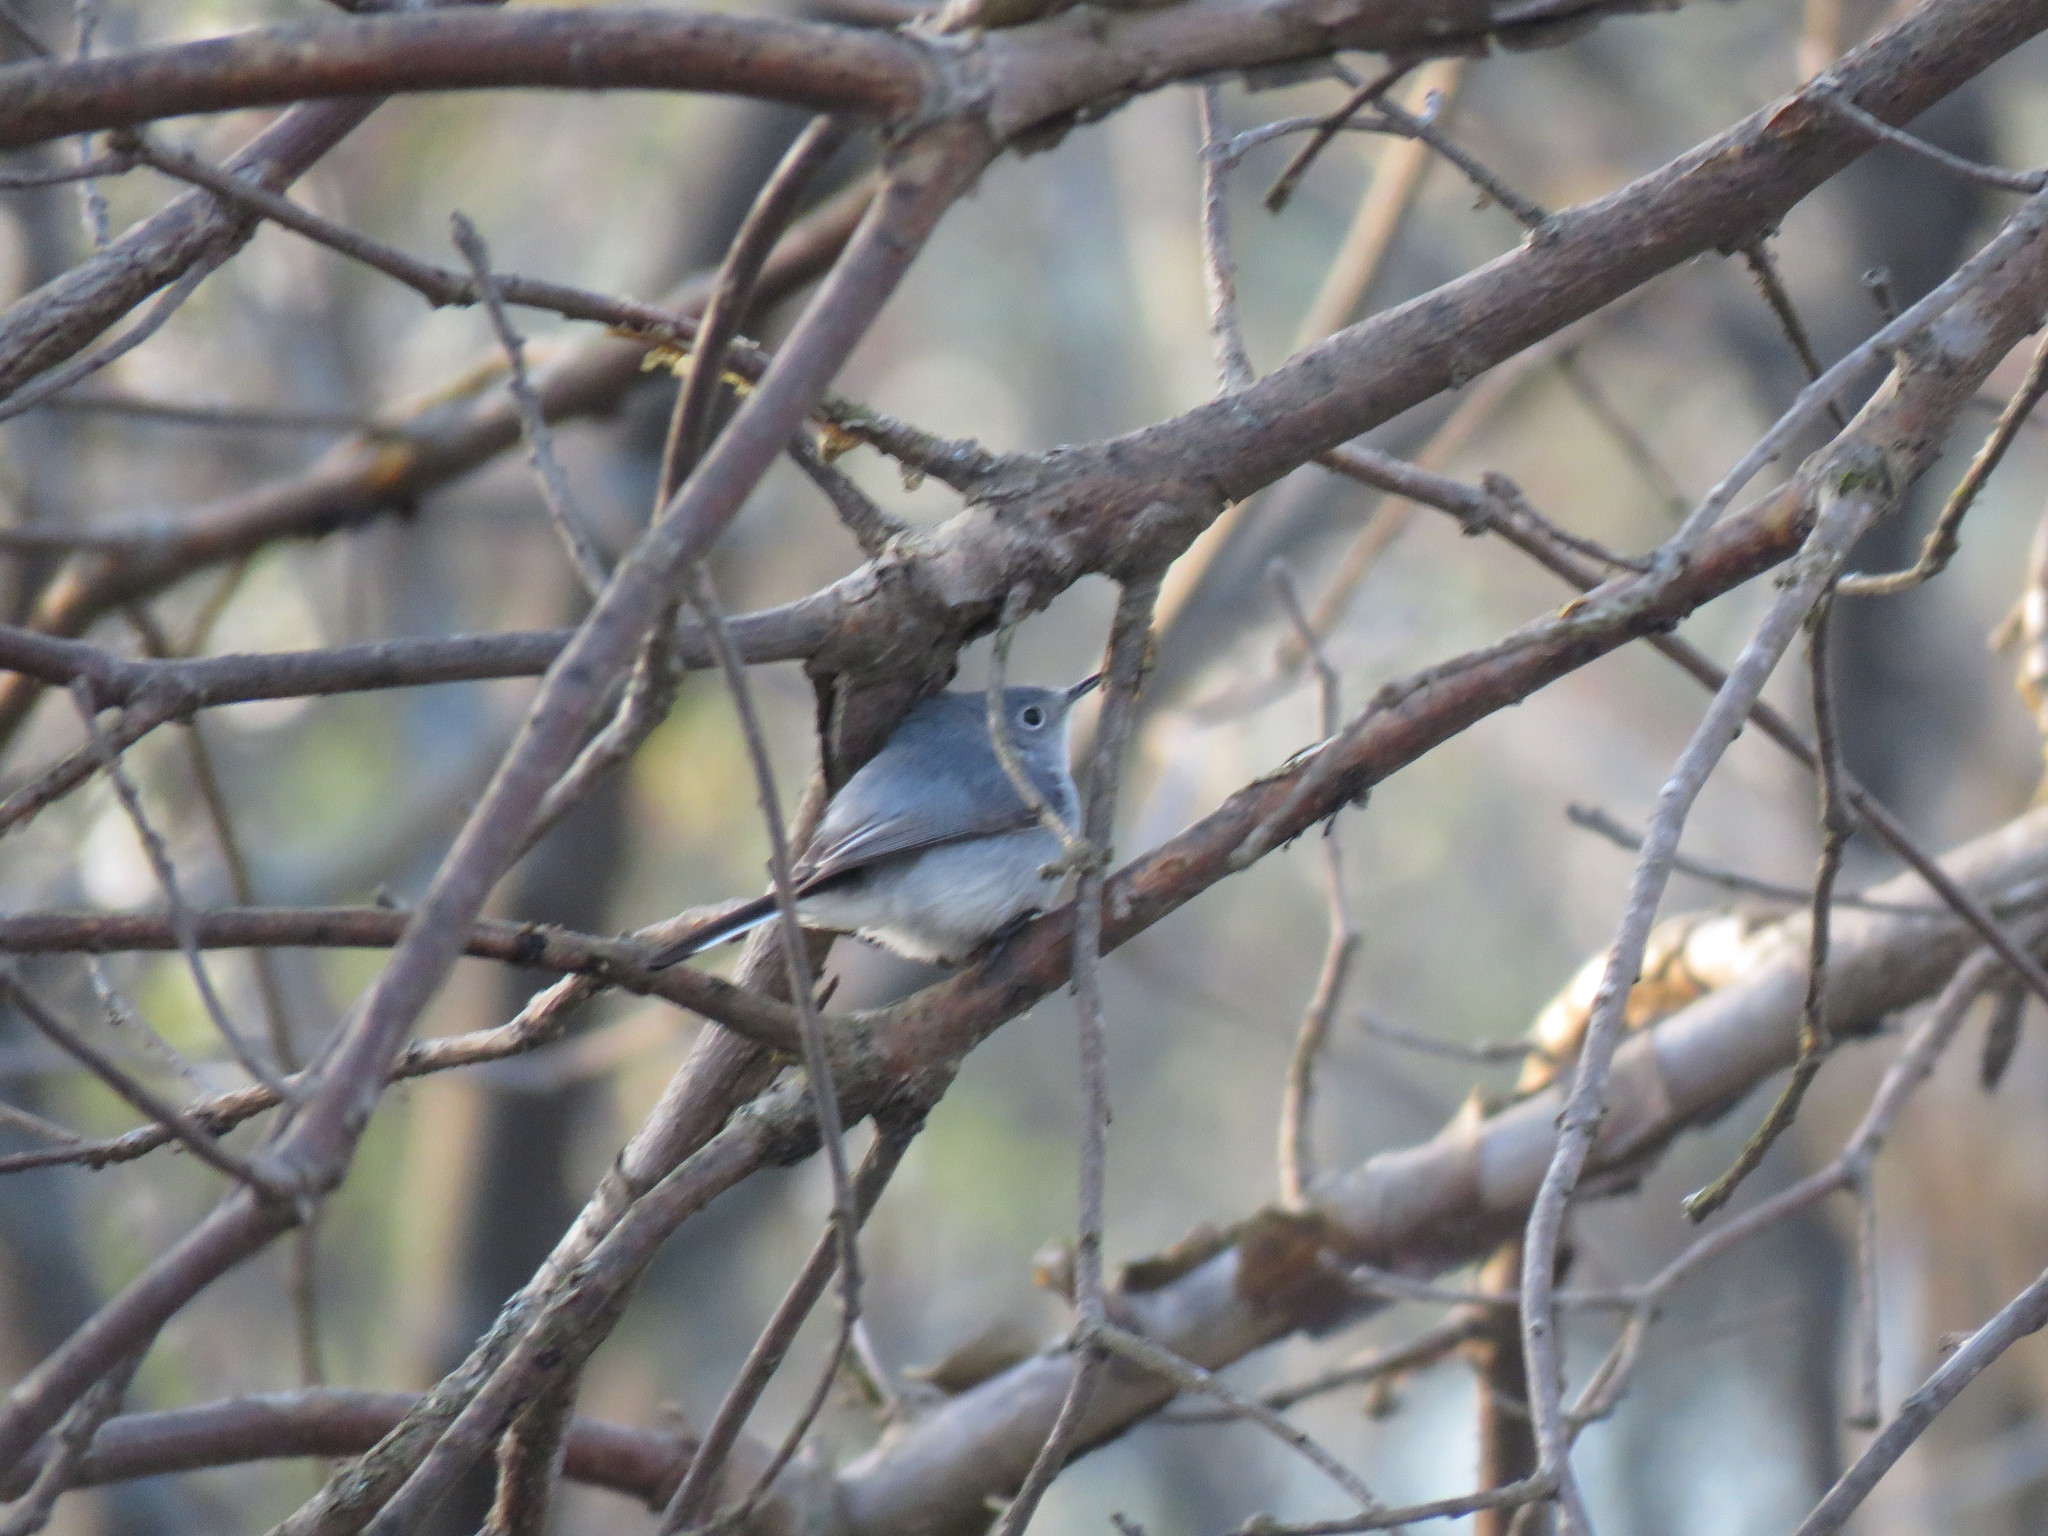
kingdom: Animalia
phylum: Chordata
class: Aves
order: Passeriformes
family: Polioptilidae
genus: Polioptila
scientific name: Polioptila caerulea
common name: Blue-gray gnatcatcher
